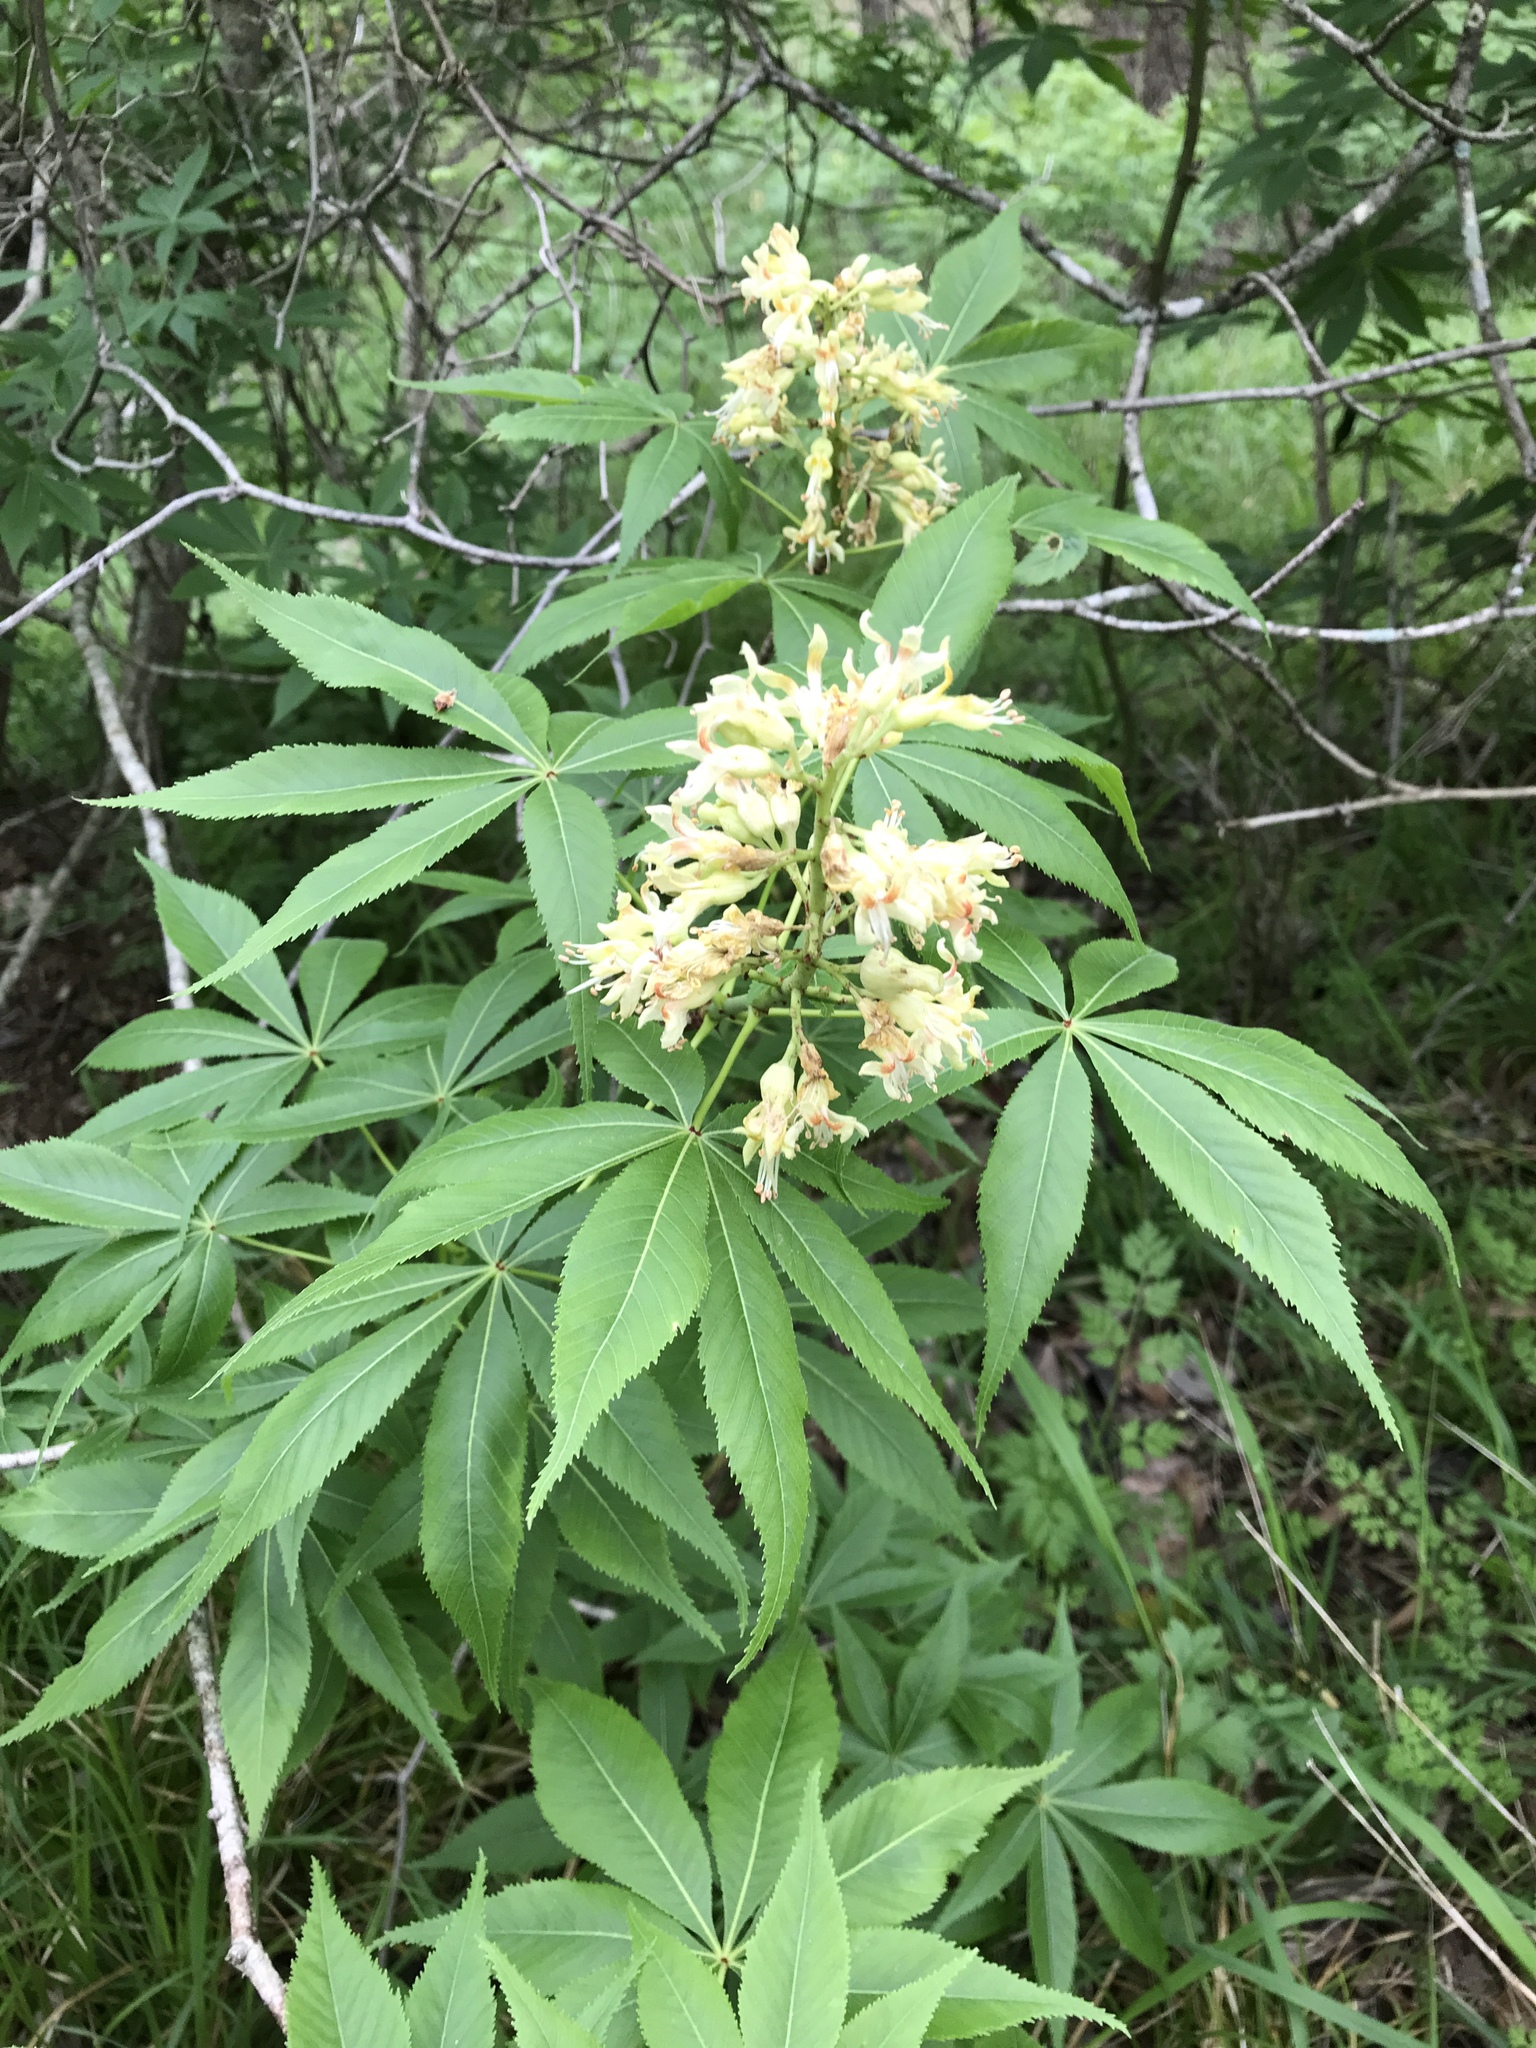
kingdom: Plantae
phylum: Tracheophyta
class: Magnoliopsida
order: Sapindales
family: Sapindaceae
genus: Aesculus
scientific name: Aesculus glabra
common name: Ohio buckeye
